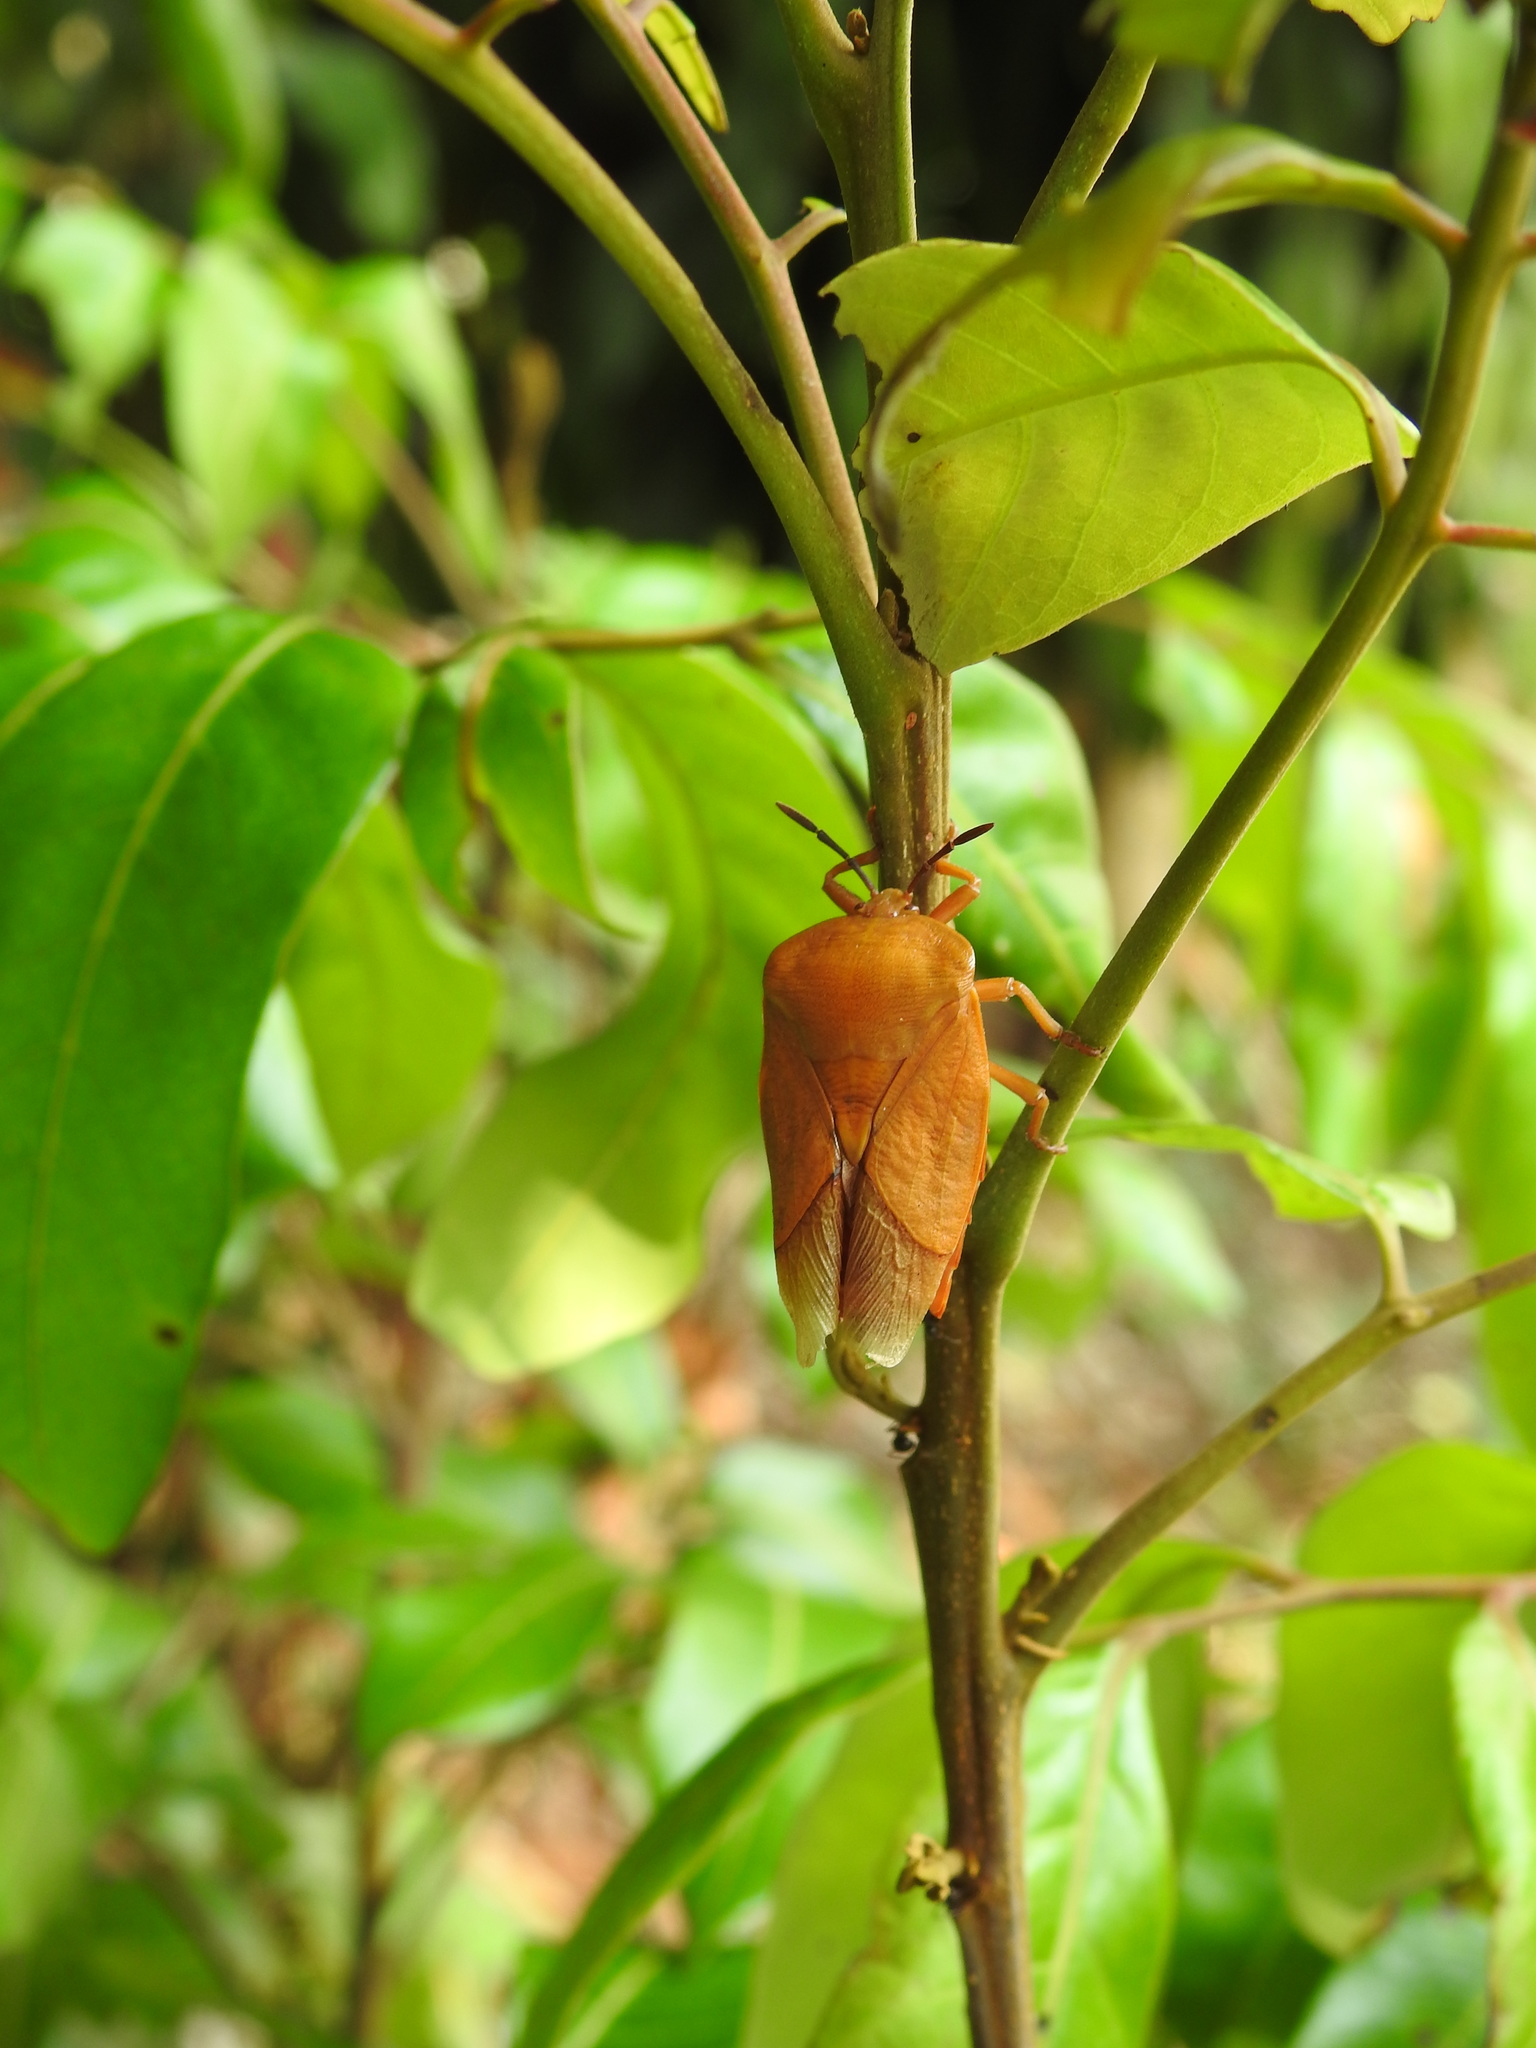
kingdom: Animalia
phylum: Arthropoda
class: Insecta
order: Hemiptera
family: Tessaratomidae
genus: Tessaratoma
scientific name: Tessaratoma papillosa
